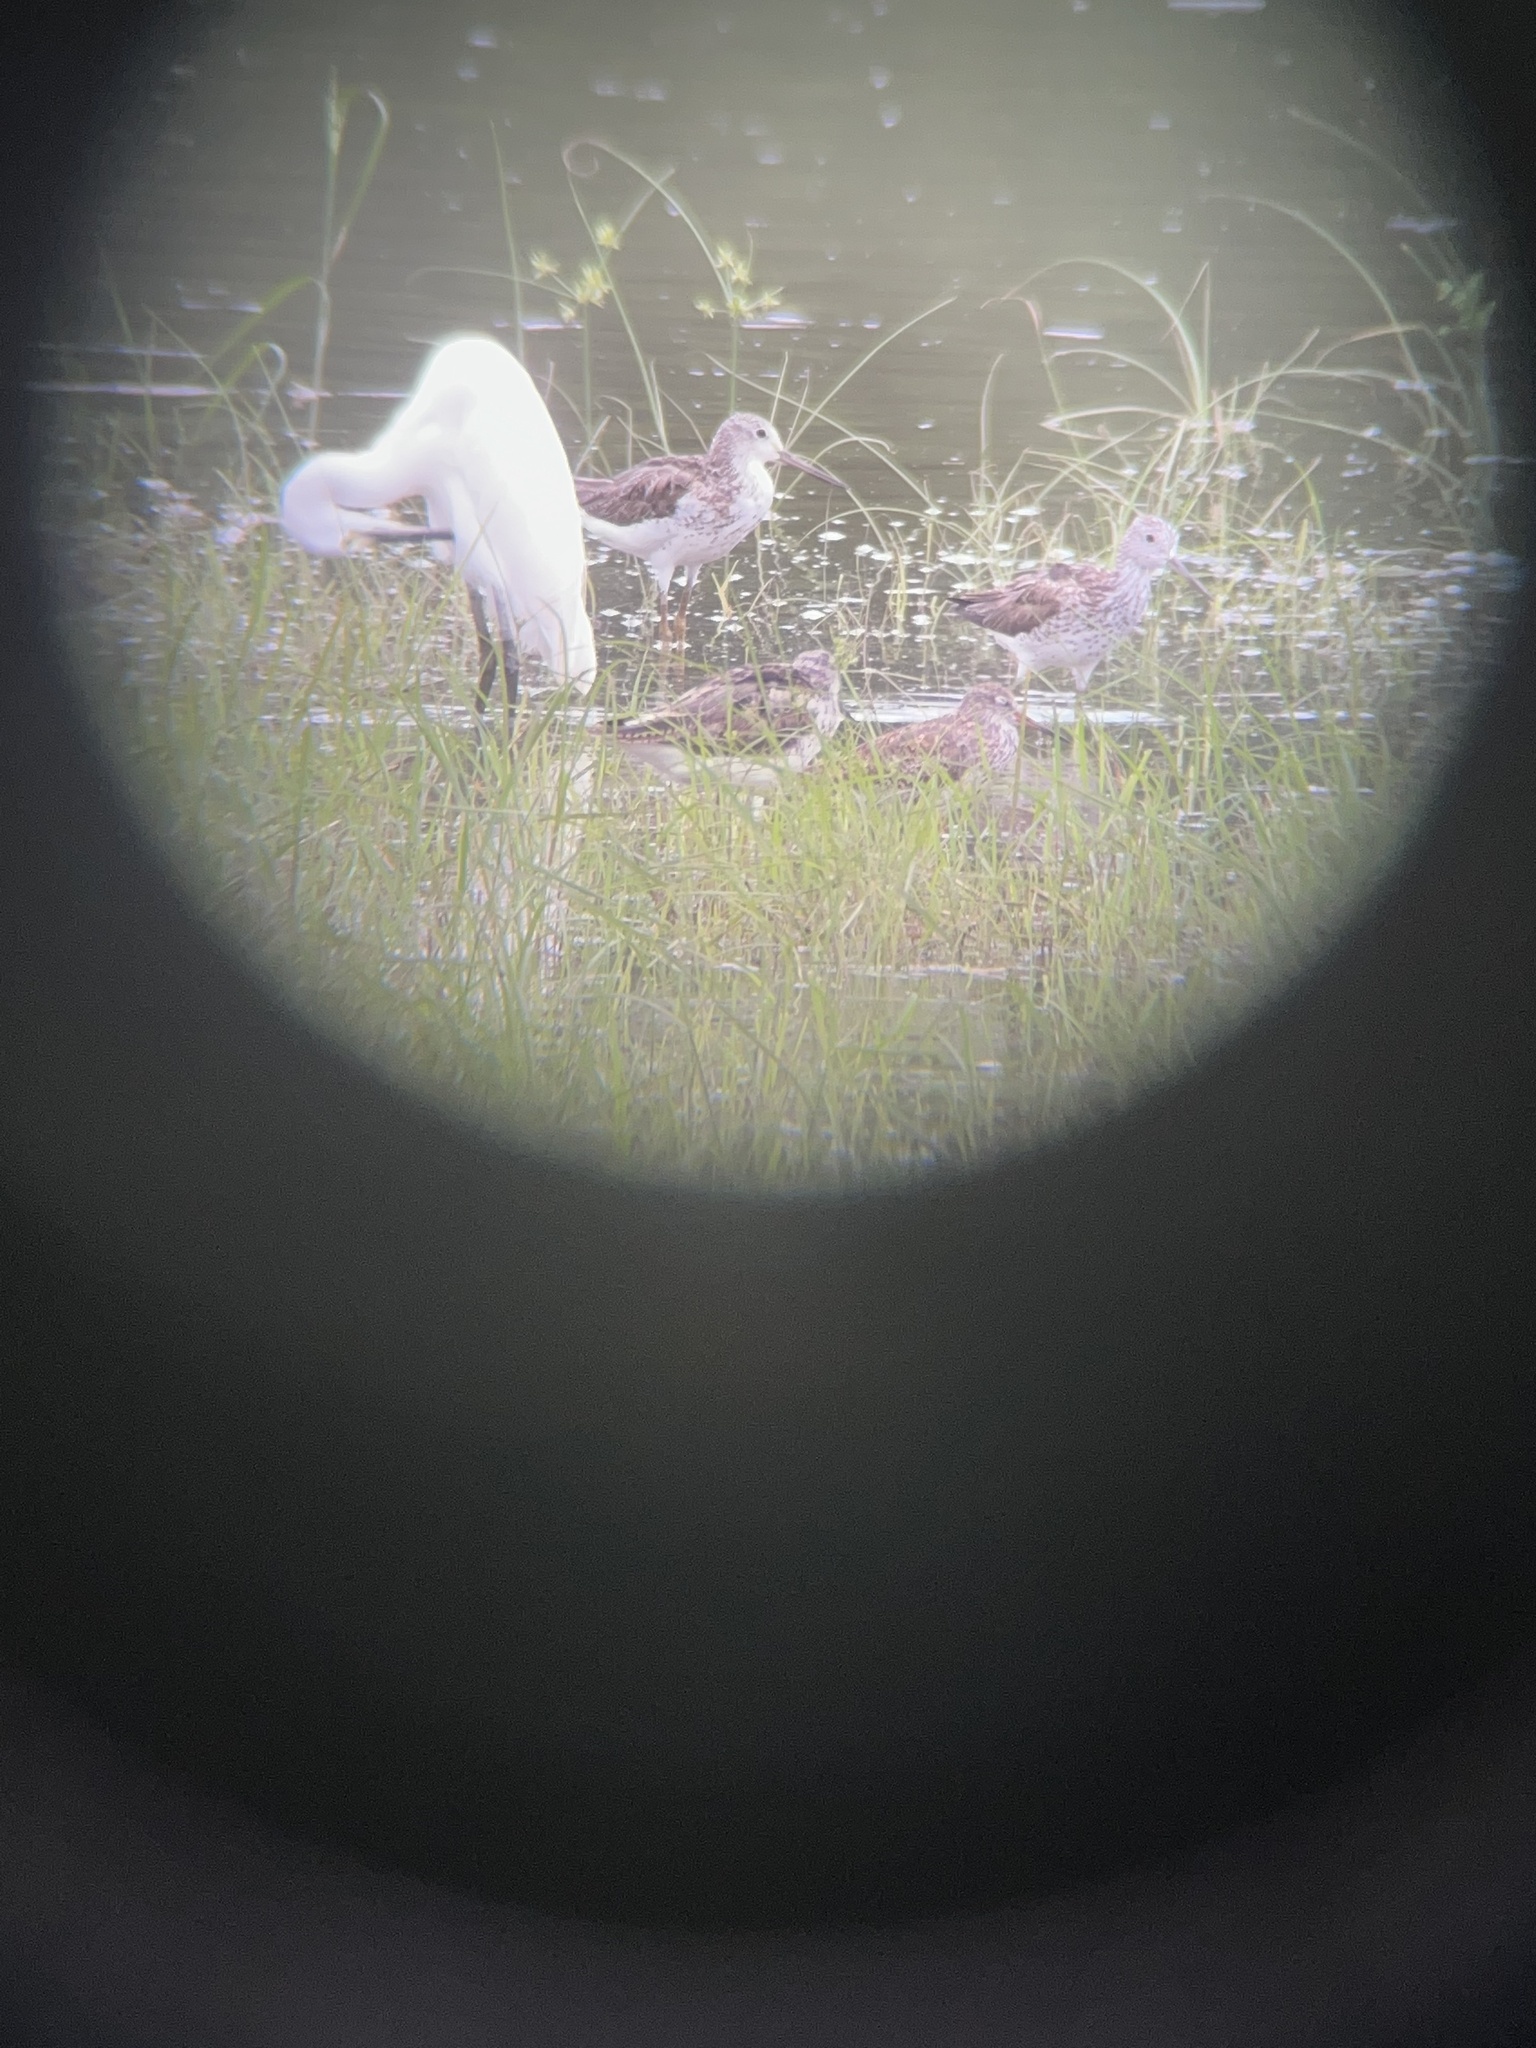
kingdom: Animalia
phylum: Chordata
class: Aves
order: Charadriiformes
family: Scolopacidae
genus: Tringa
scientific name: Tringa nebularia
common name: Common greenshank
